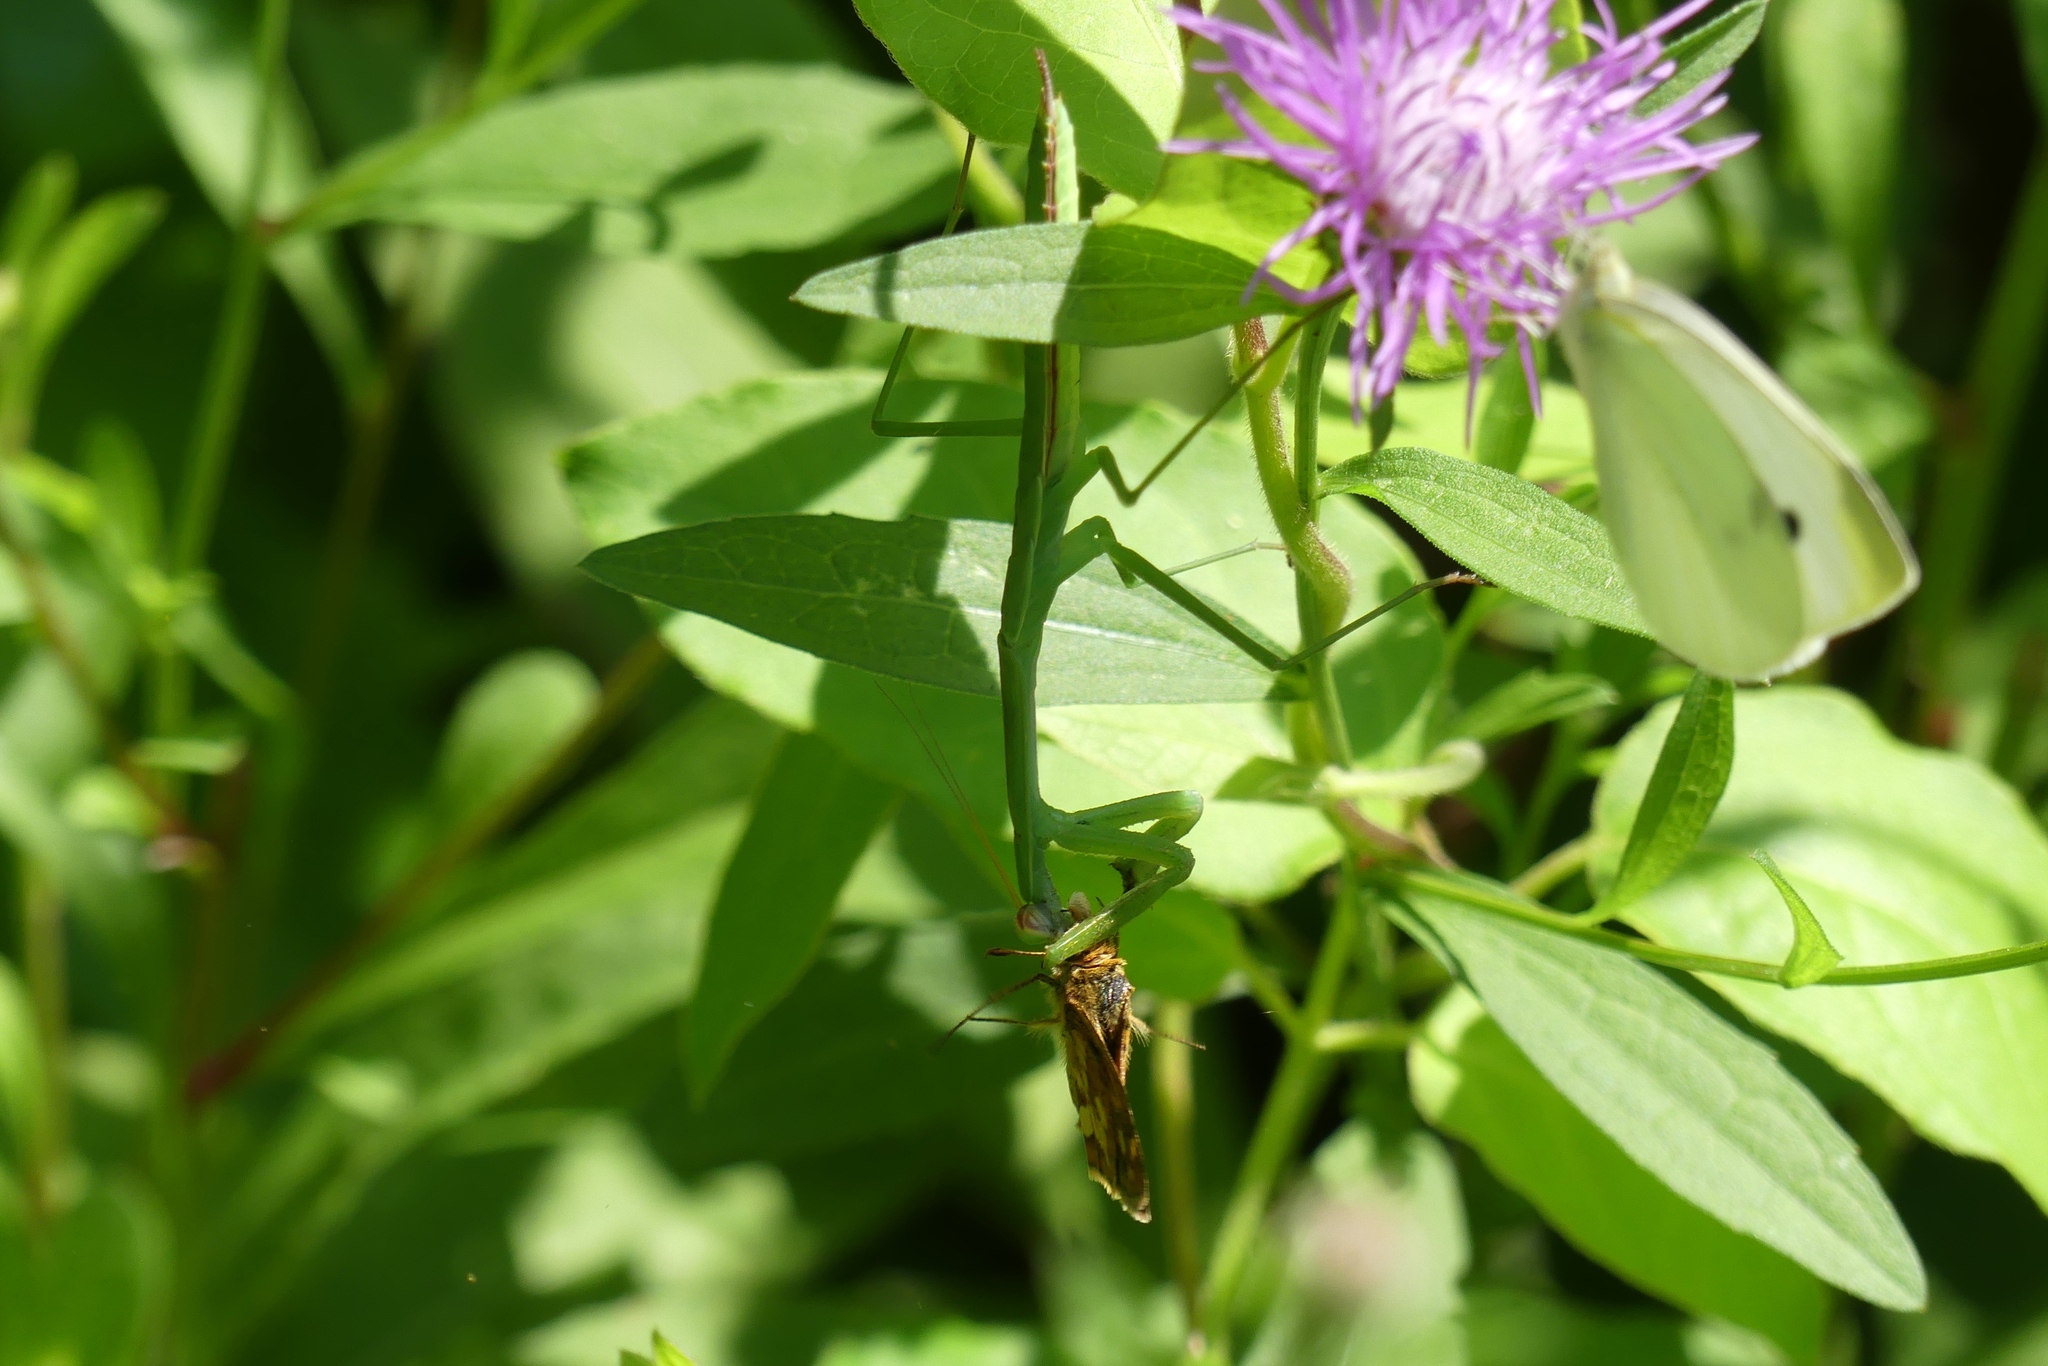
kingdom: Animalia
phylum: Arthropoda
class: Insecta
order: Mantodea
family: Mantidae
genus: Tenodera
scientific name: Tenodera sinensis
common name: Chinese mantis
